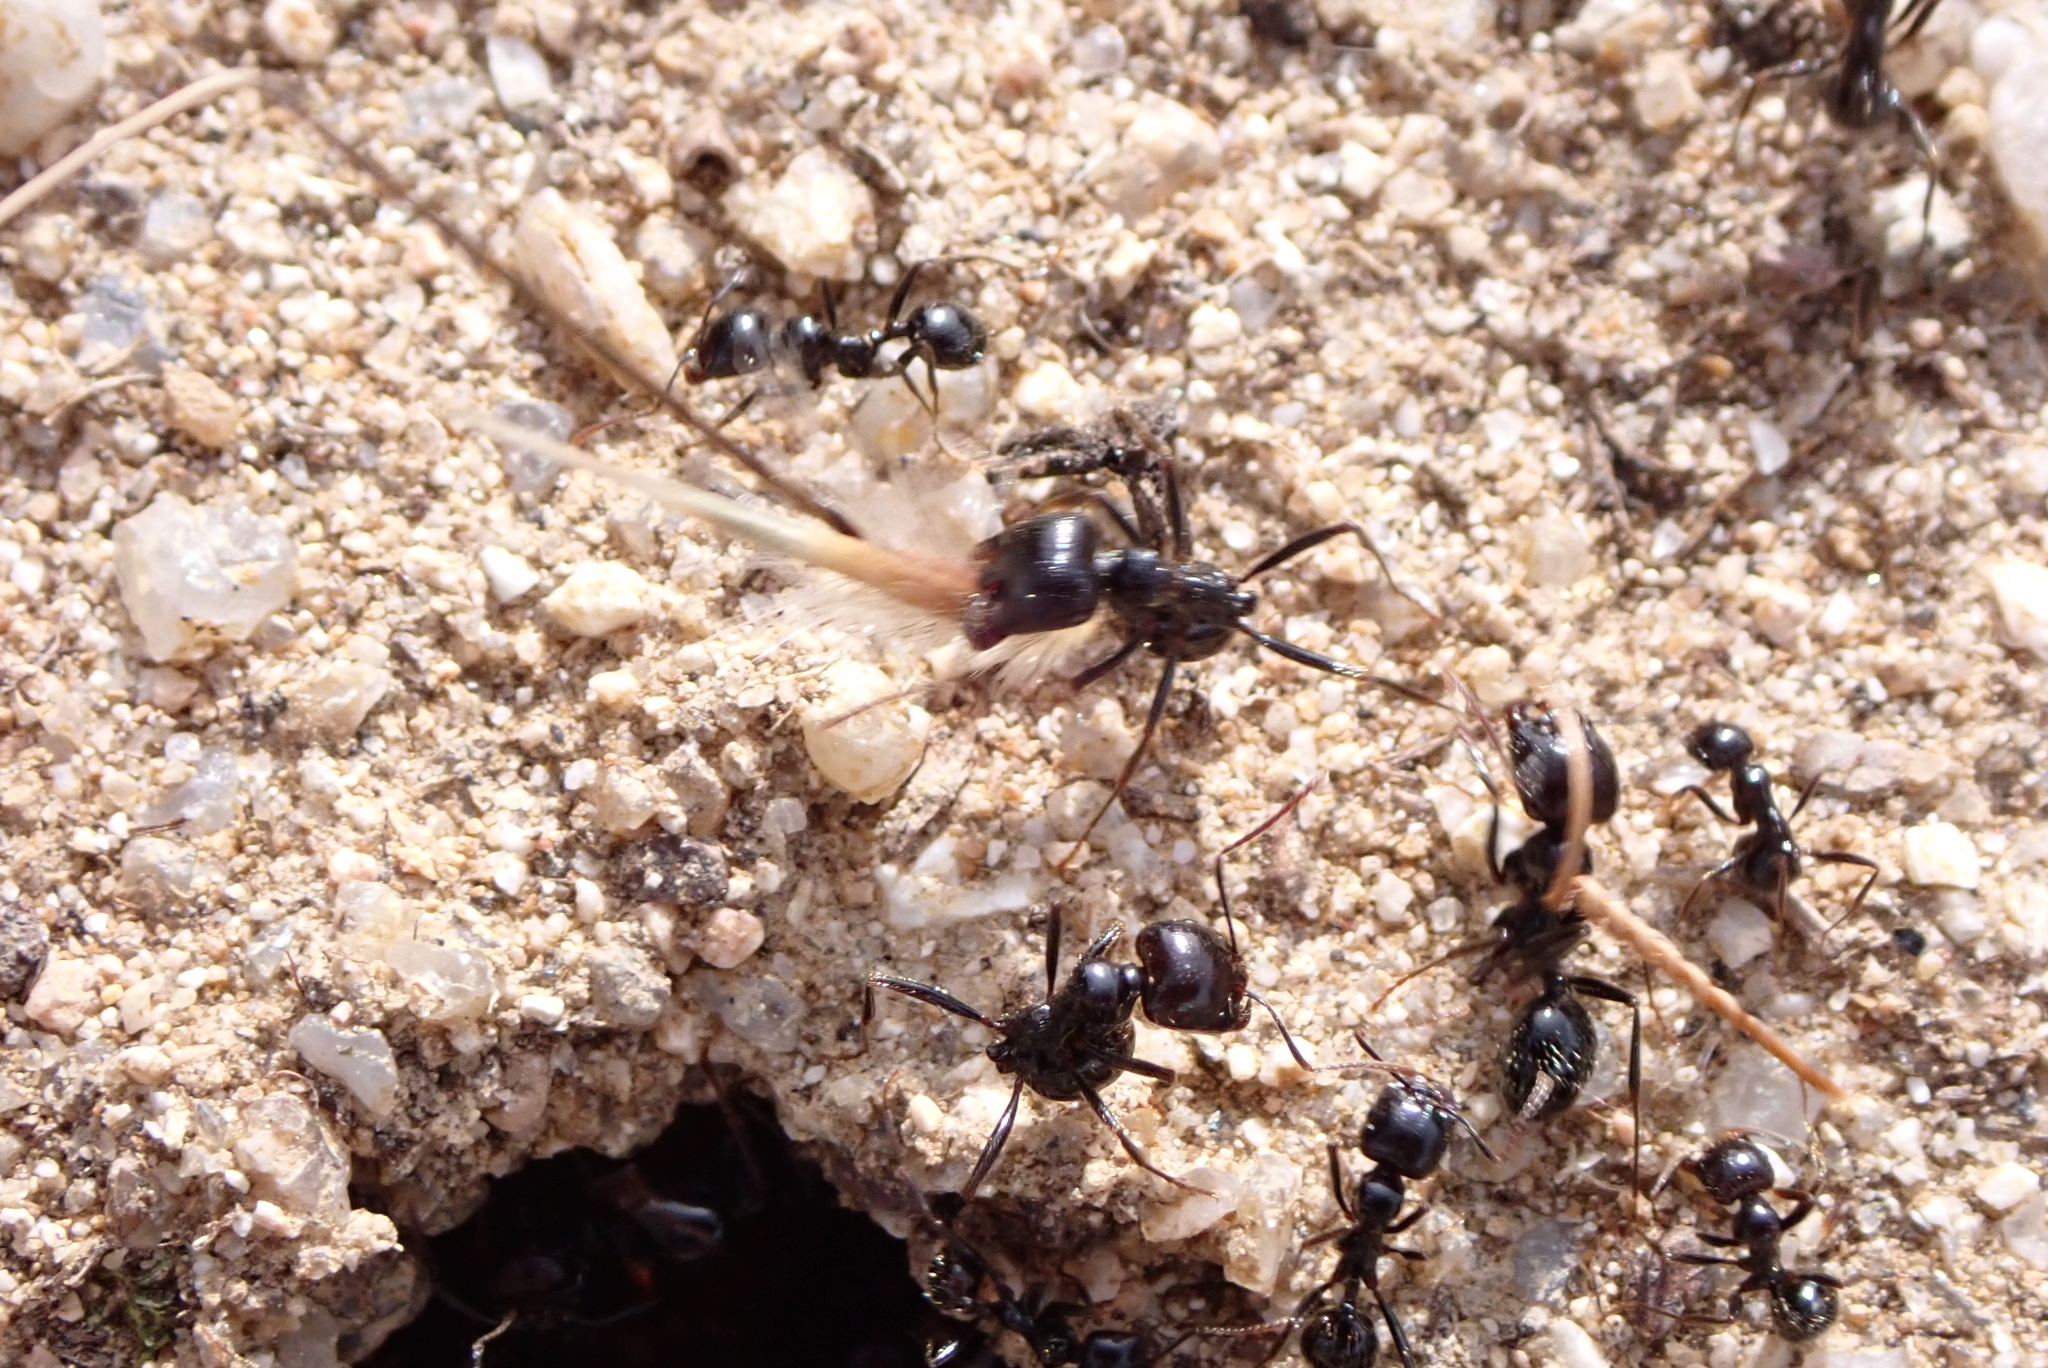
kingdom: Animalia
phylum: Arthropoda
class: Insecta
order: Hymenoptera
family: Formicidae
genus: Messor
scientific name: Messor barbarus
